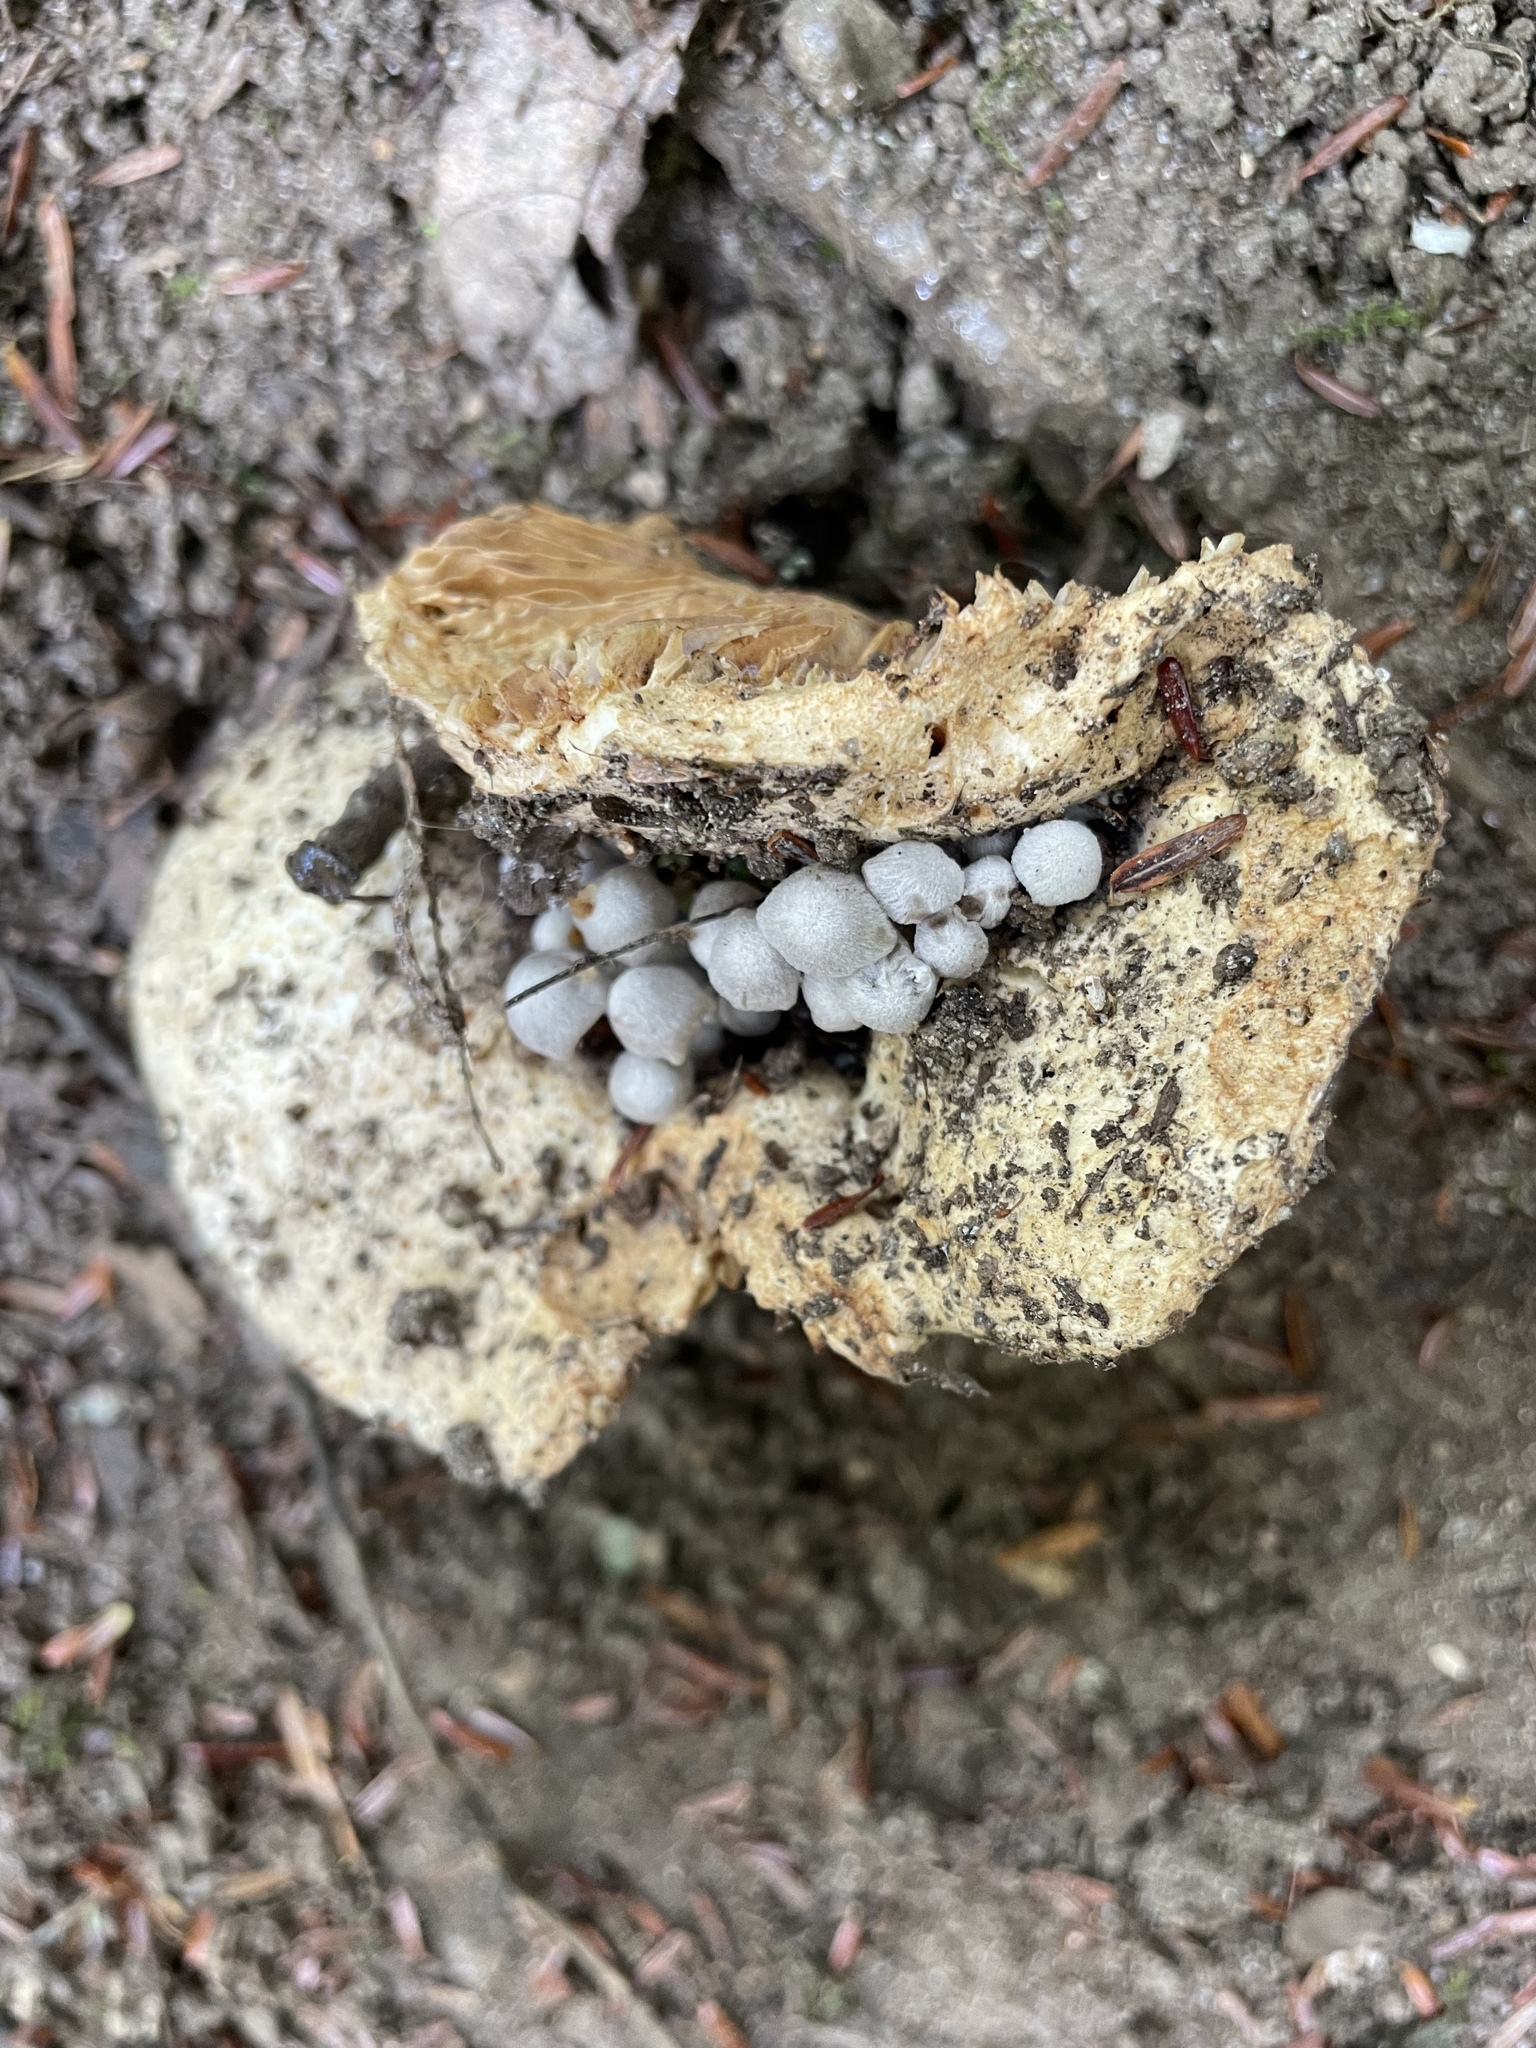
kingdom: Fungi
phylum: Basidiomycota
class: Agaricomycetes
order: Agaricales
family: Lyophyllaceae
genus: Asterophora
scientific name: Asterophora parasitica
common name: Silky piggyback
